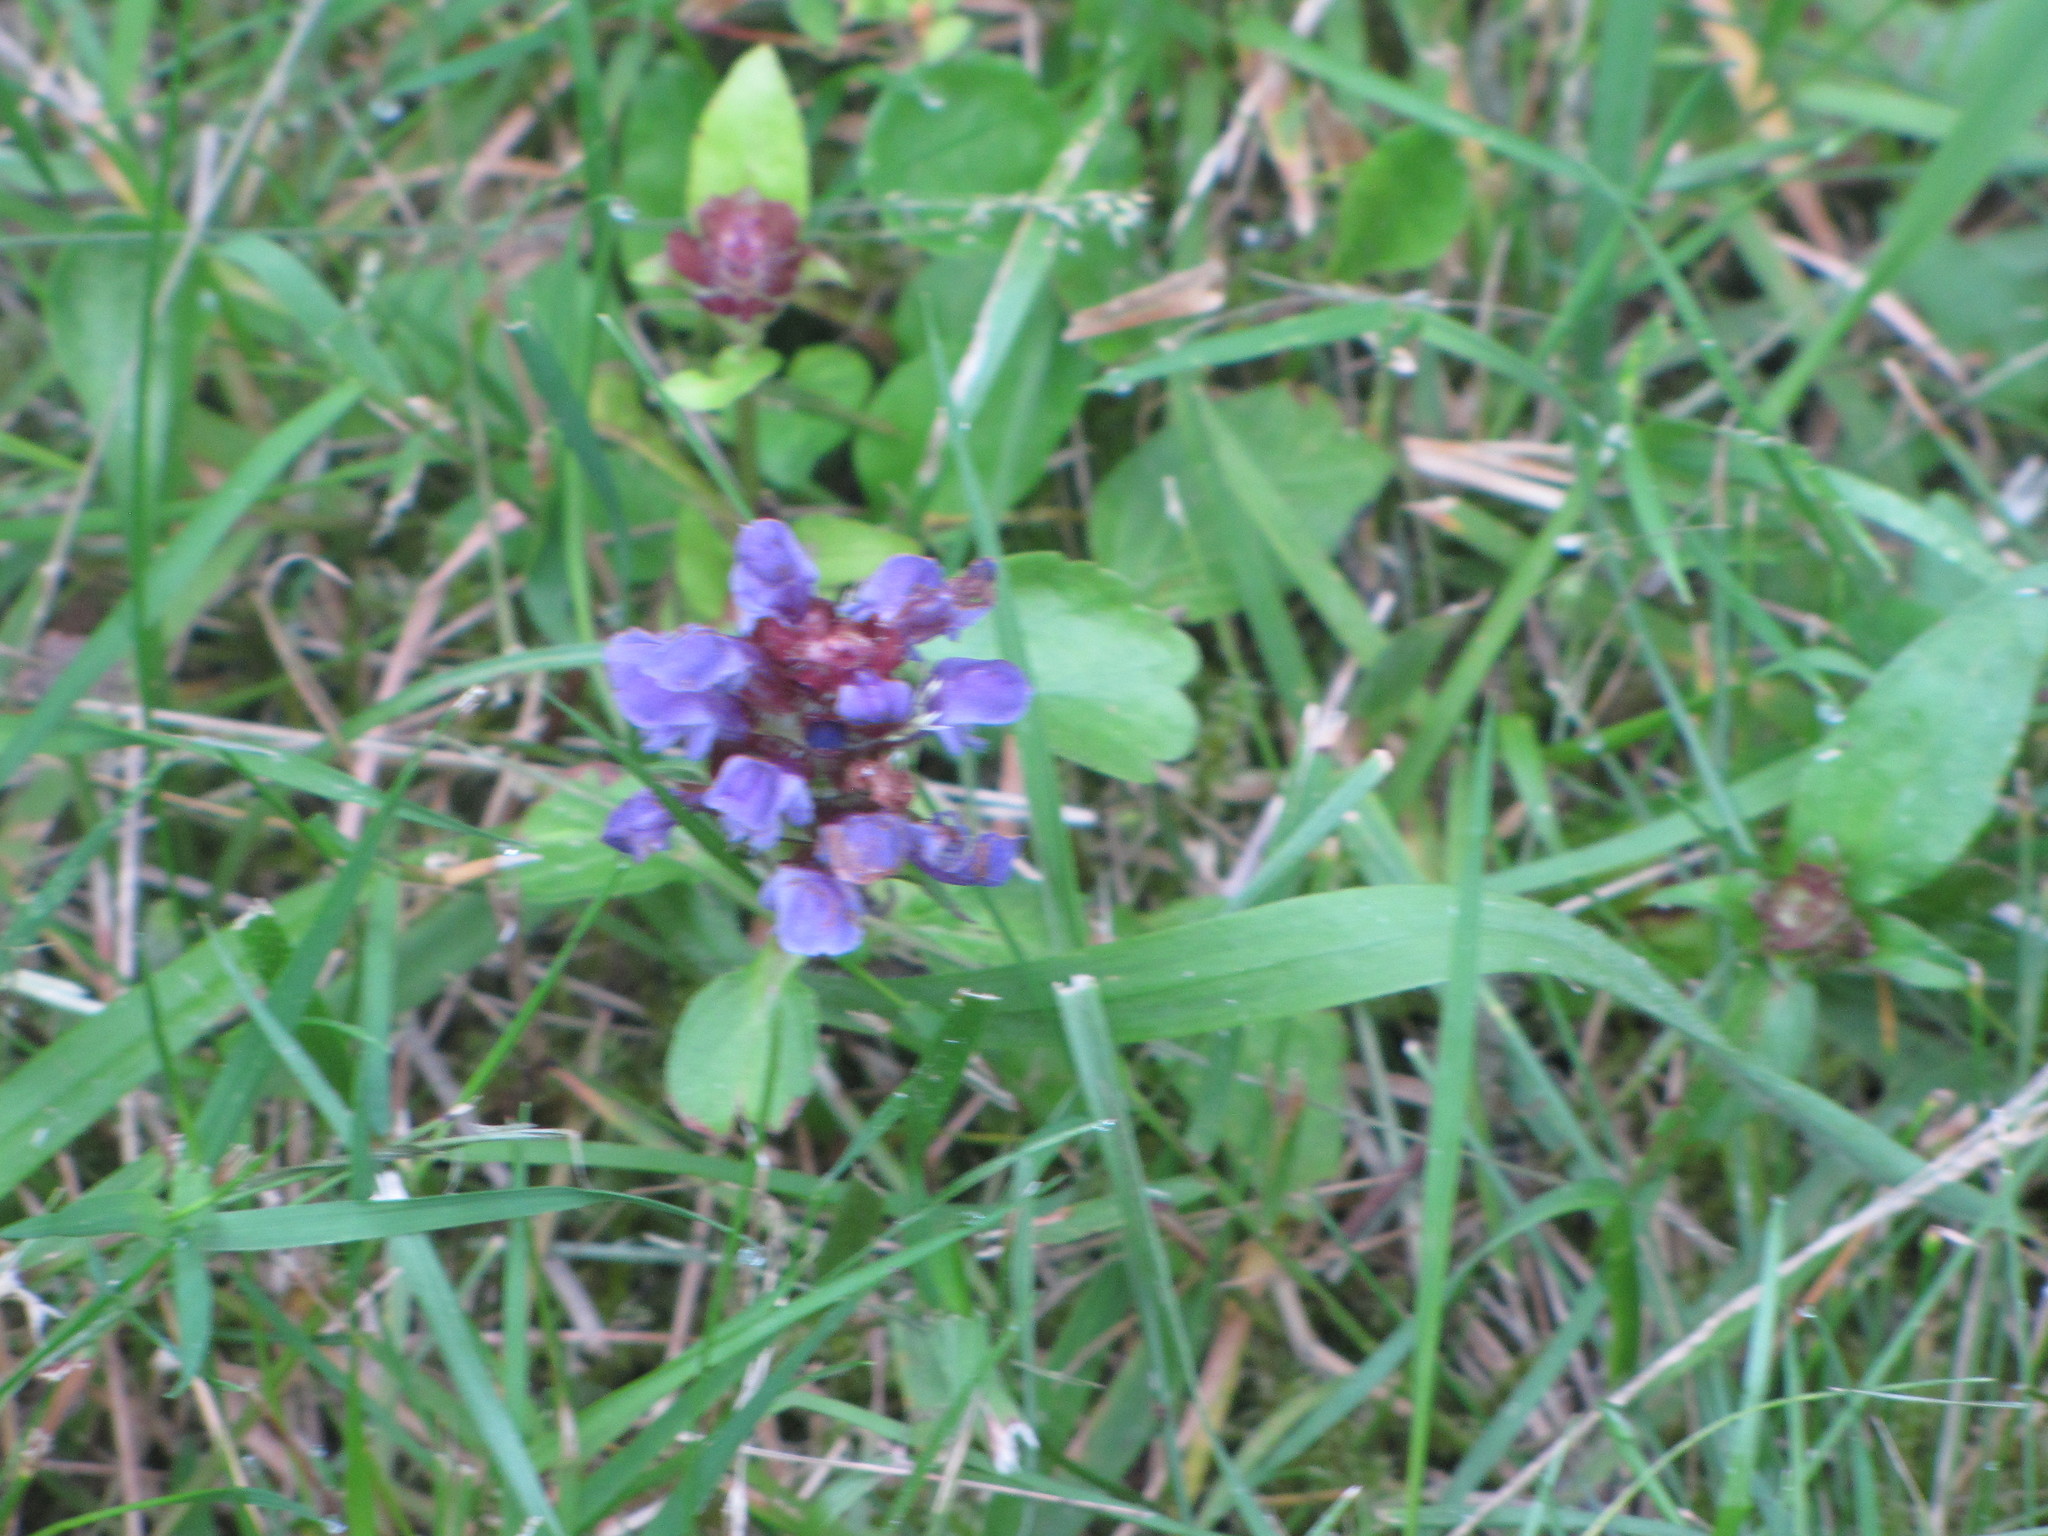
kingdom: Plantae
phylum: Tracheophyta
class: Magnoliopsida
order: Lamiales
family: Lamiaceae
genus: Prunella
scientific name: Prunella vulgaris
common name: Heal-all
